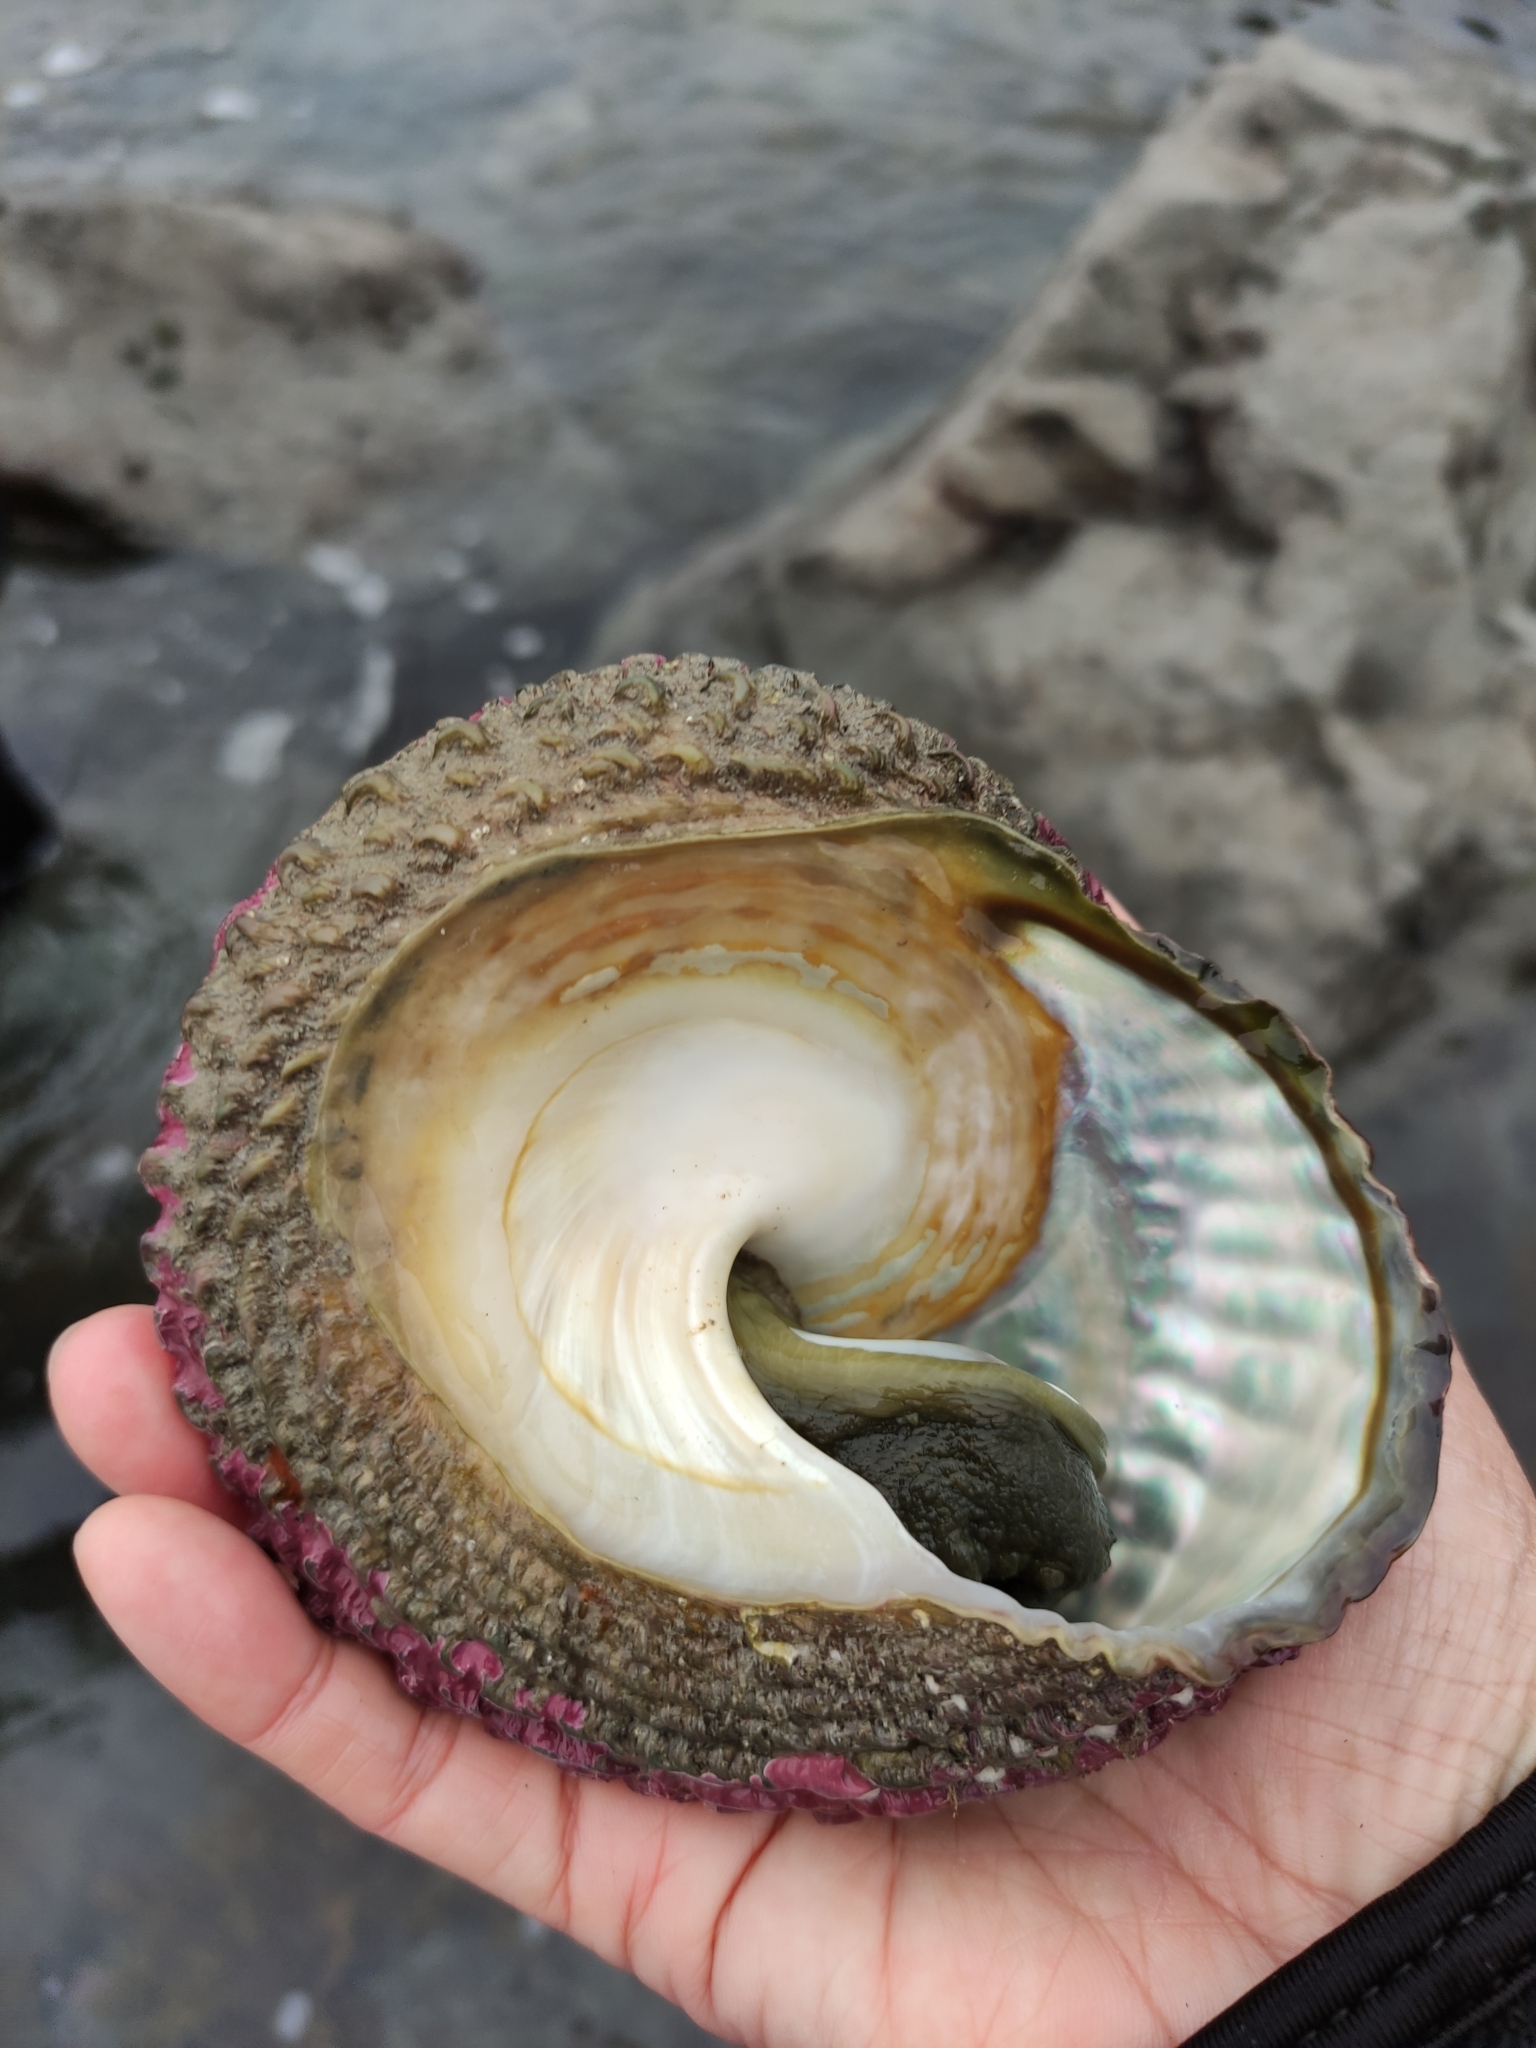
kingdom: Animalia
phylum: Mollusca
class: Gastropoda
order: Trochida
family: Turbinidae
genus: Cookia
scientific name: Cookia sulcata
